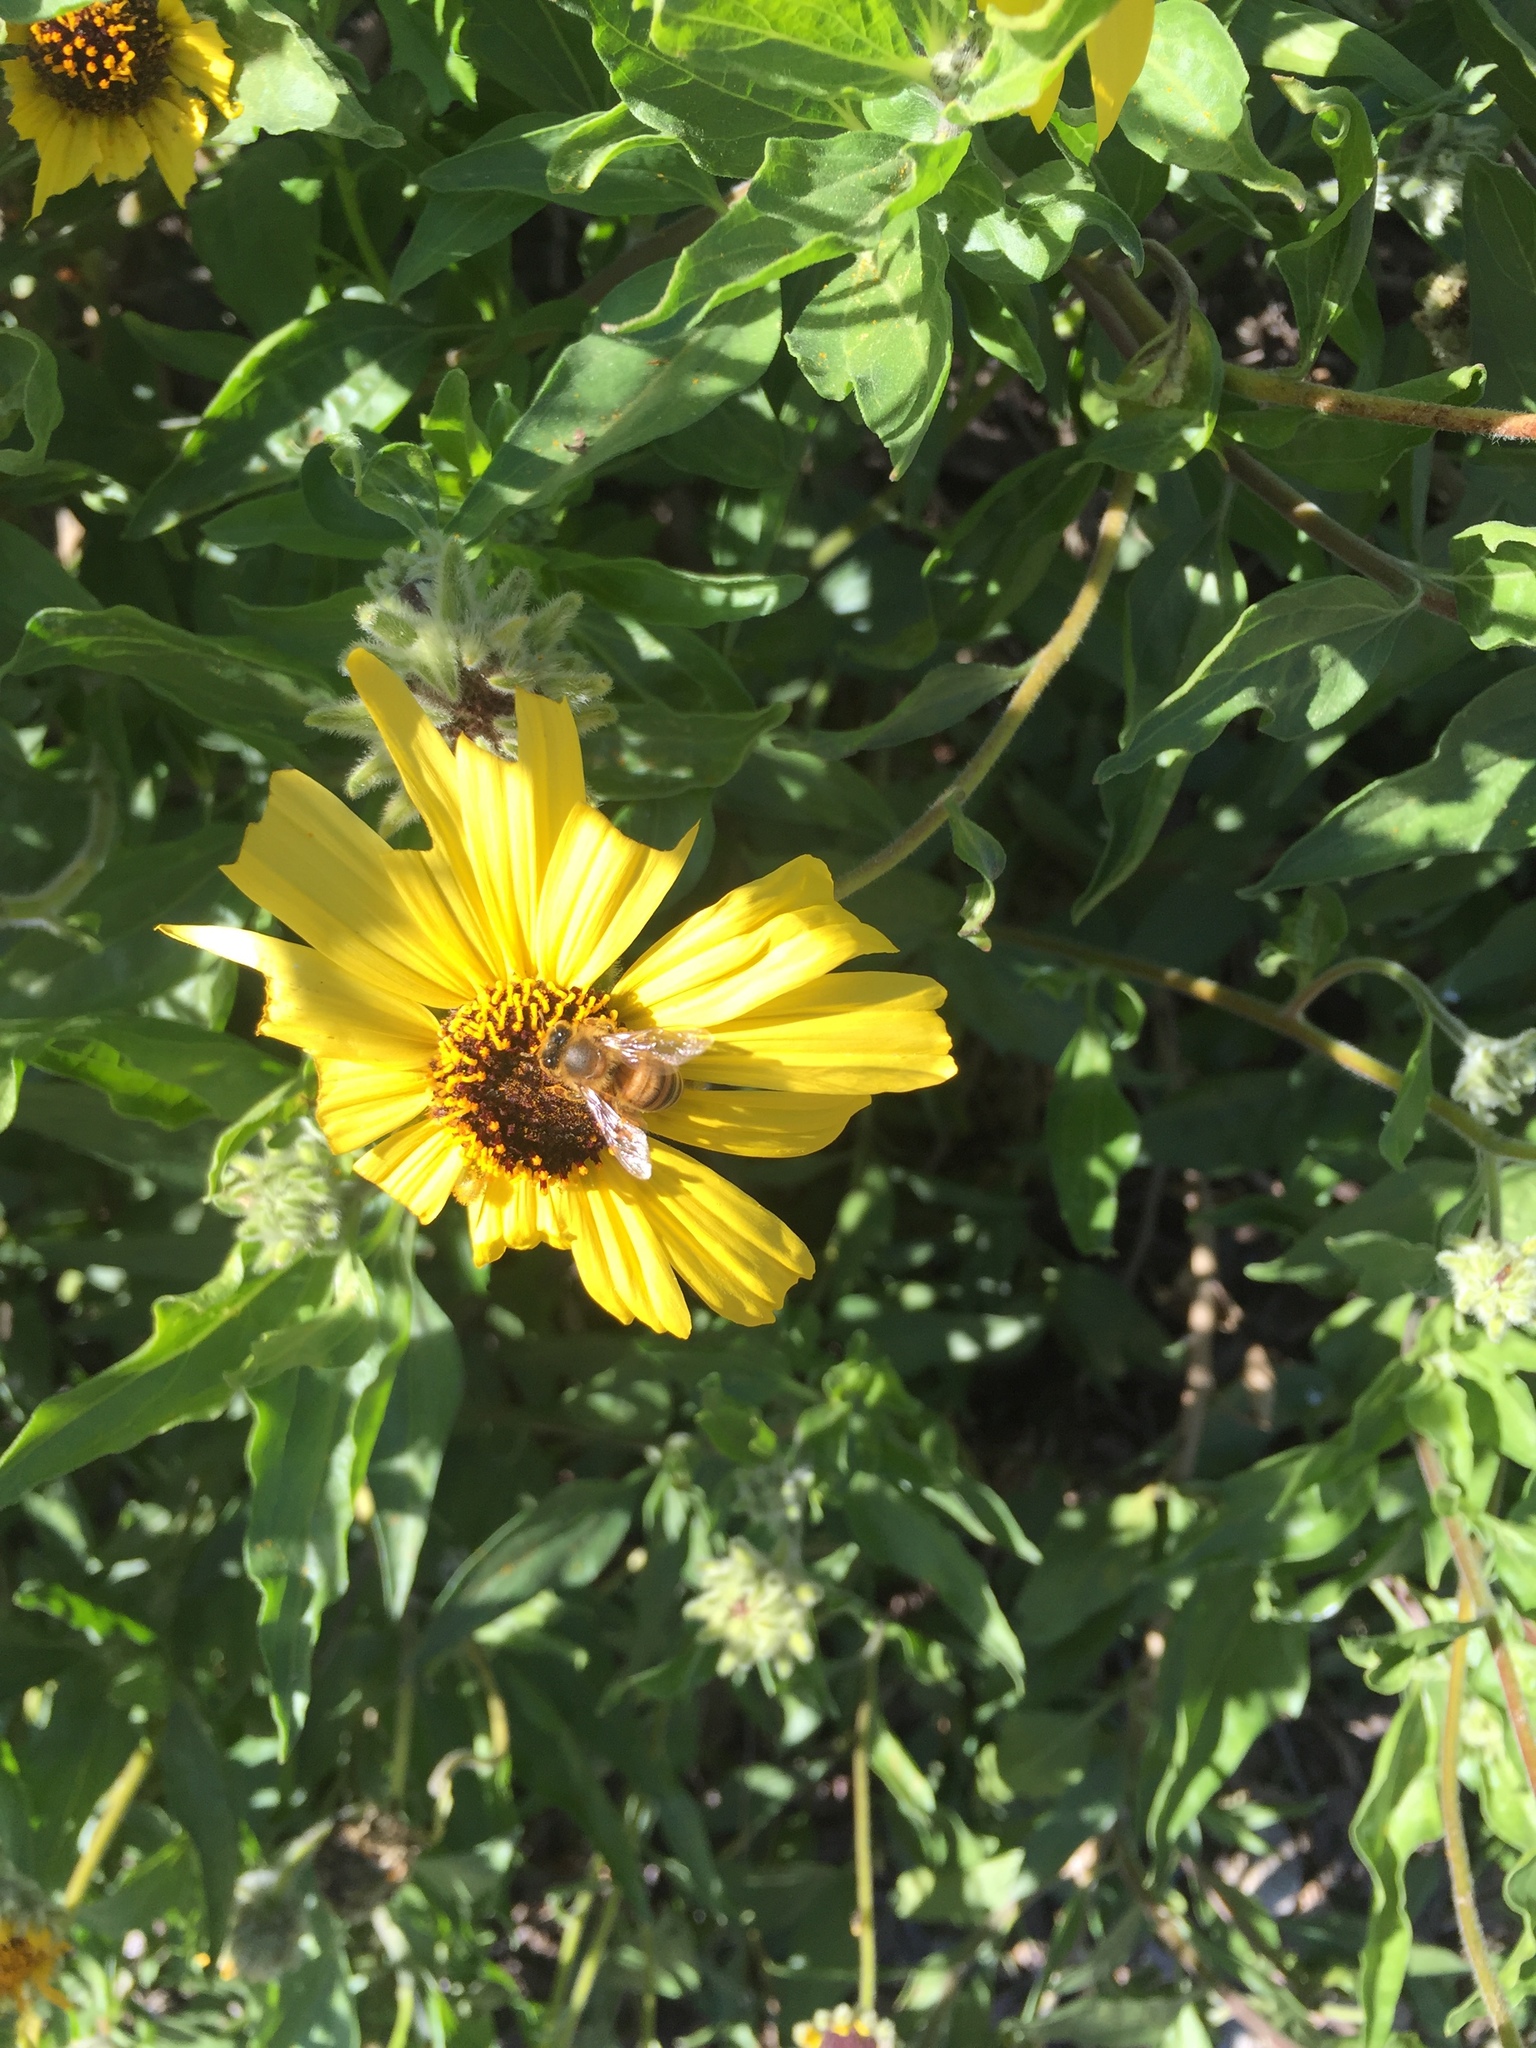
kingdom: Animalia
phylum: Arthropoda
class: Insecta
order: Hymenoptera
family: Apidae
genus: Apis
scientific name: Apis mellifera
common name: Honey bee
